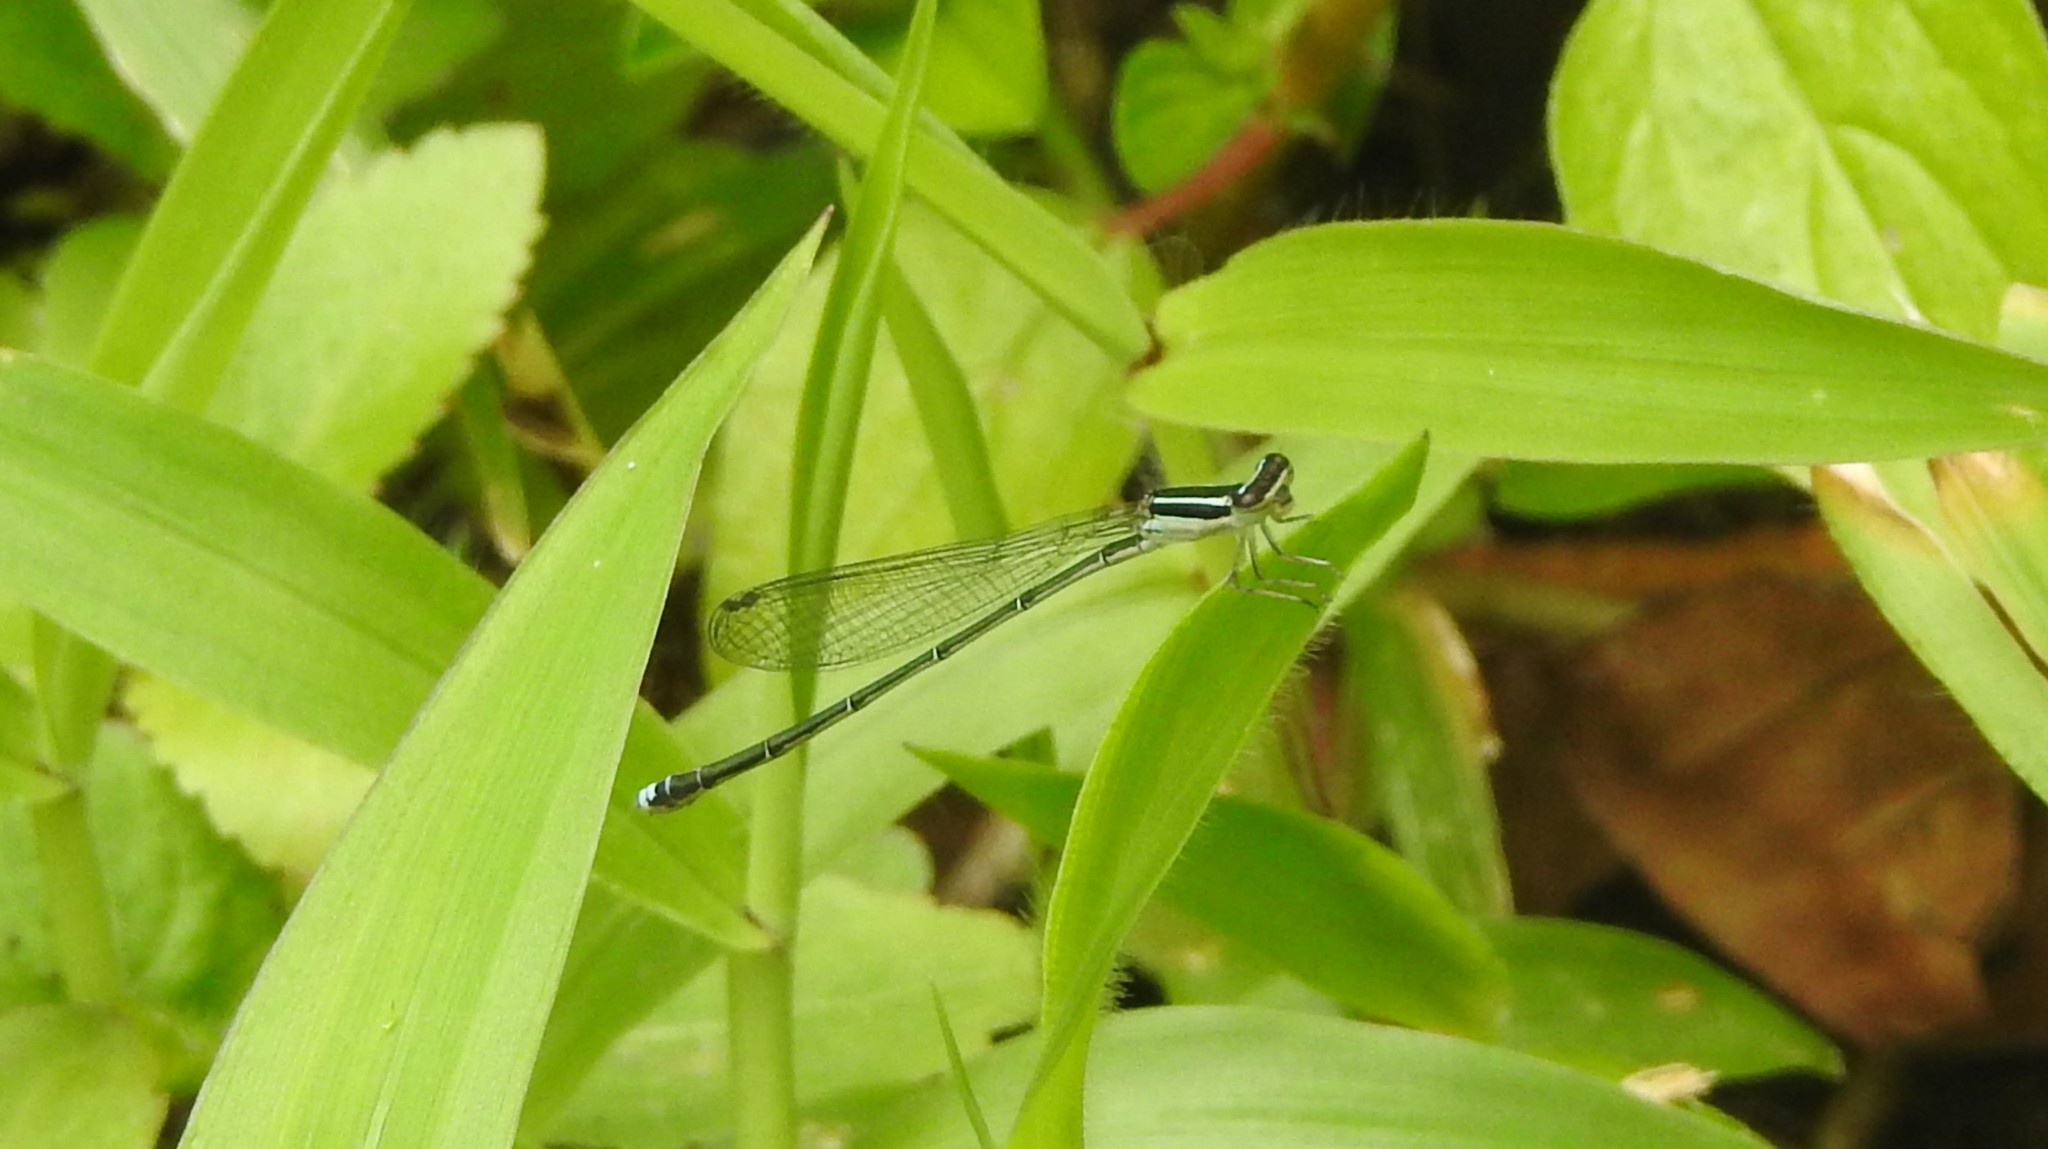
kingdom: Animalia
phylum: Arthropoda
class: Insecta
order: Odonata
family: Coenagrionidae
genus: Aciagrion
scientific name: Aciagrion occidentale
